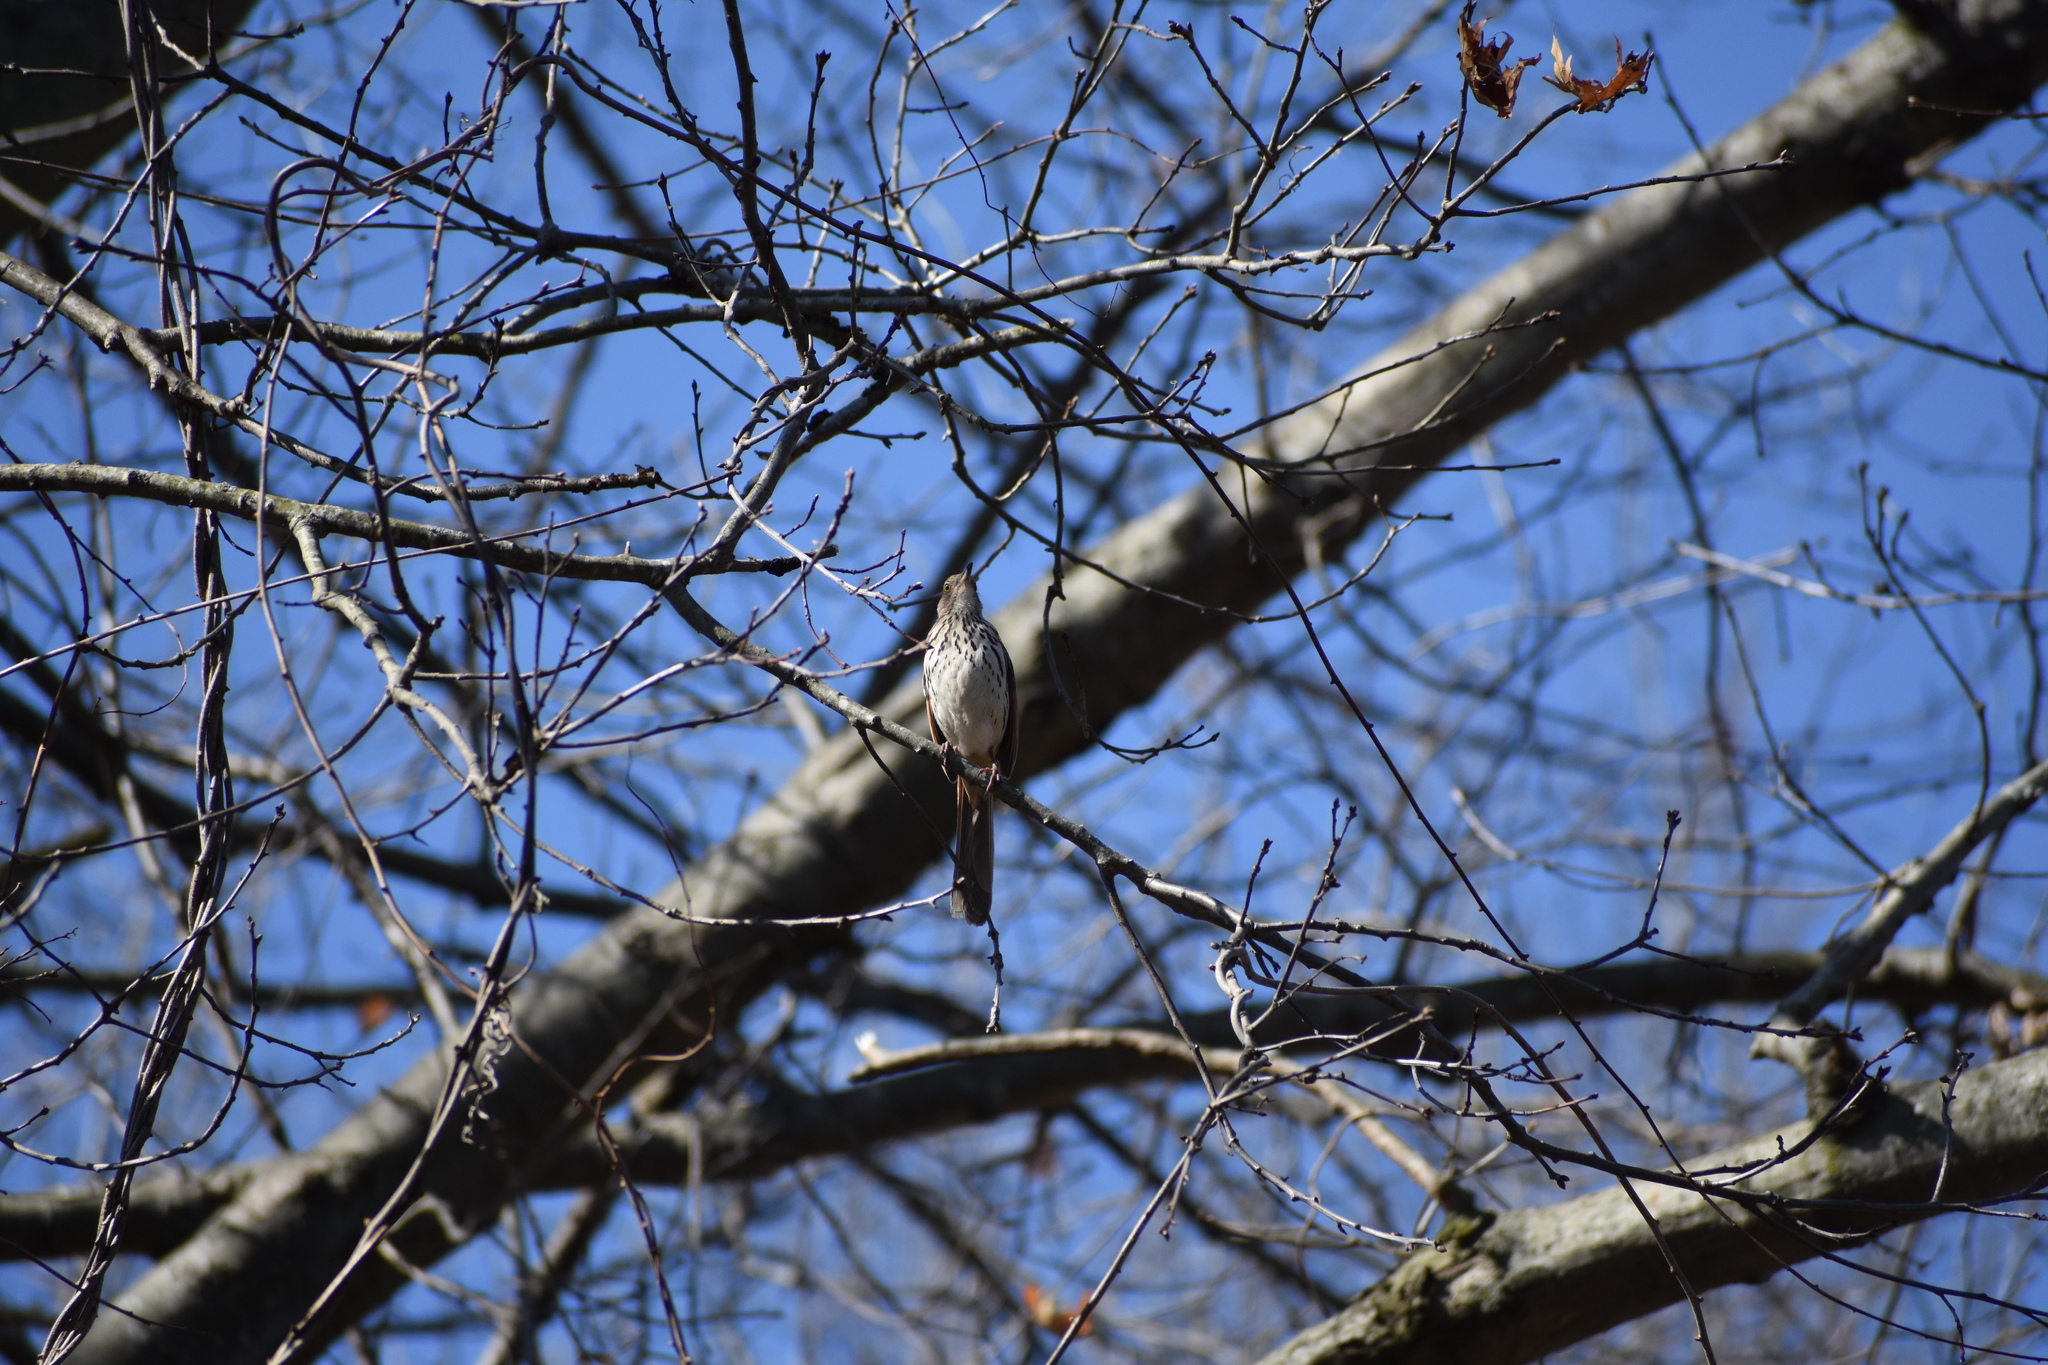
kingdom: Animalia
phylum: Chordata
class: Aves
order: Passeriformes
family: Mimidae
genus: Toxostoma
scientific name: Toxostoma rufum
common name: Brown thrasher
